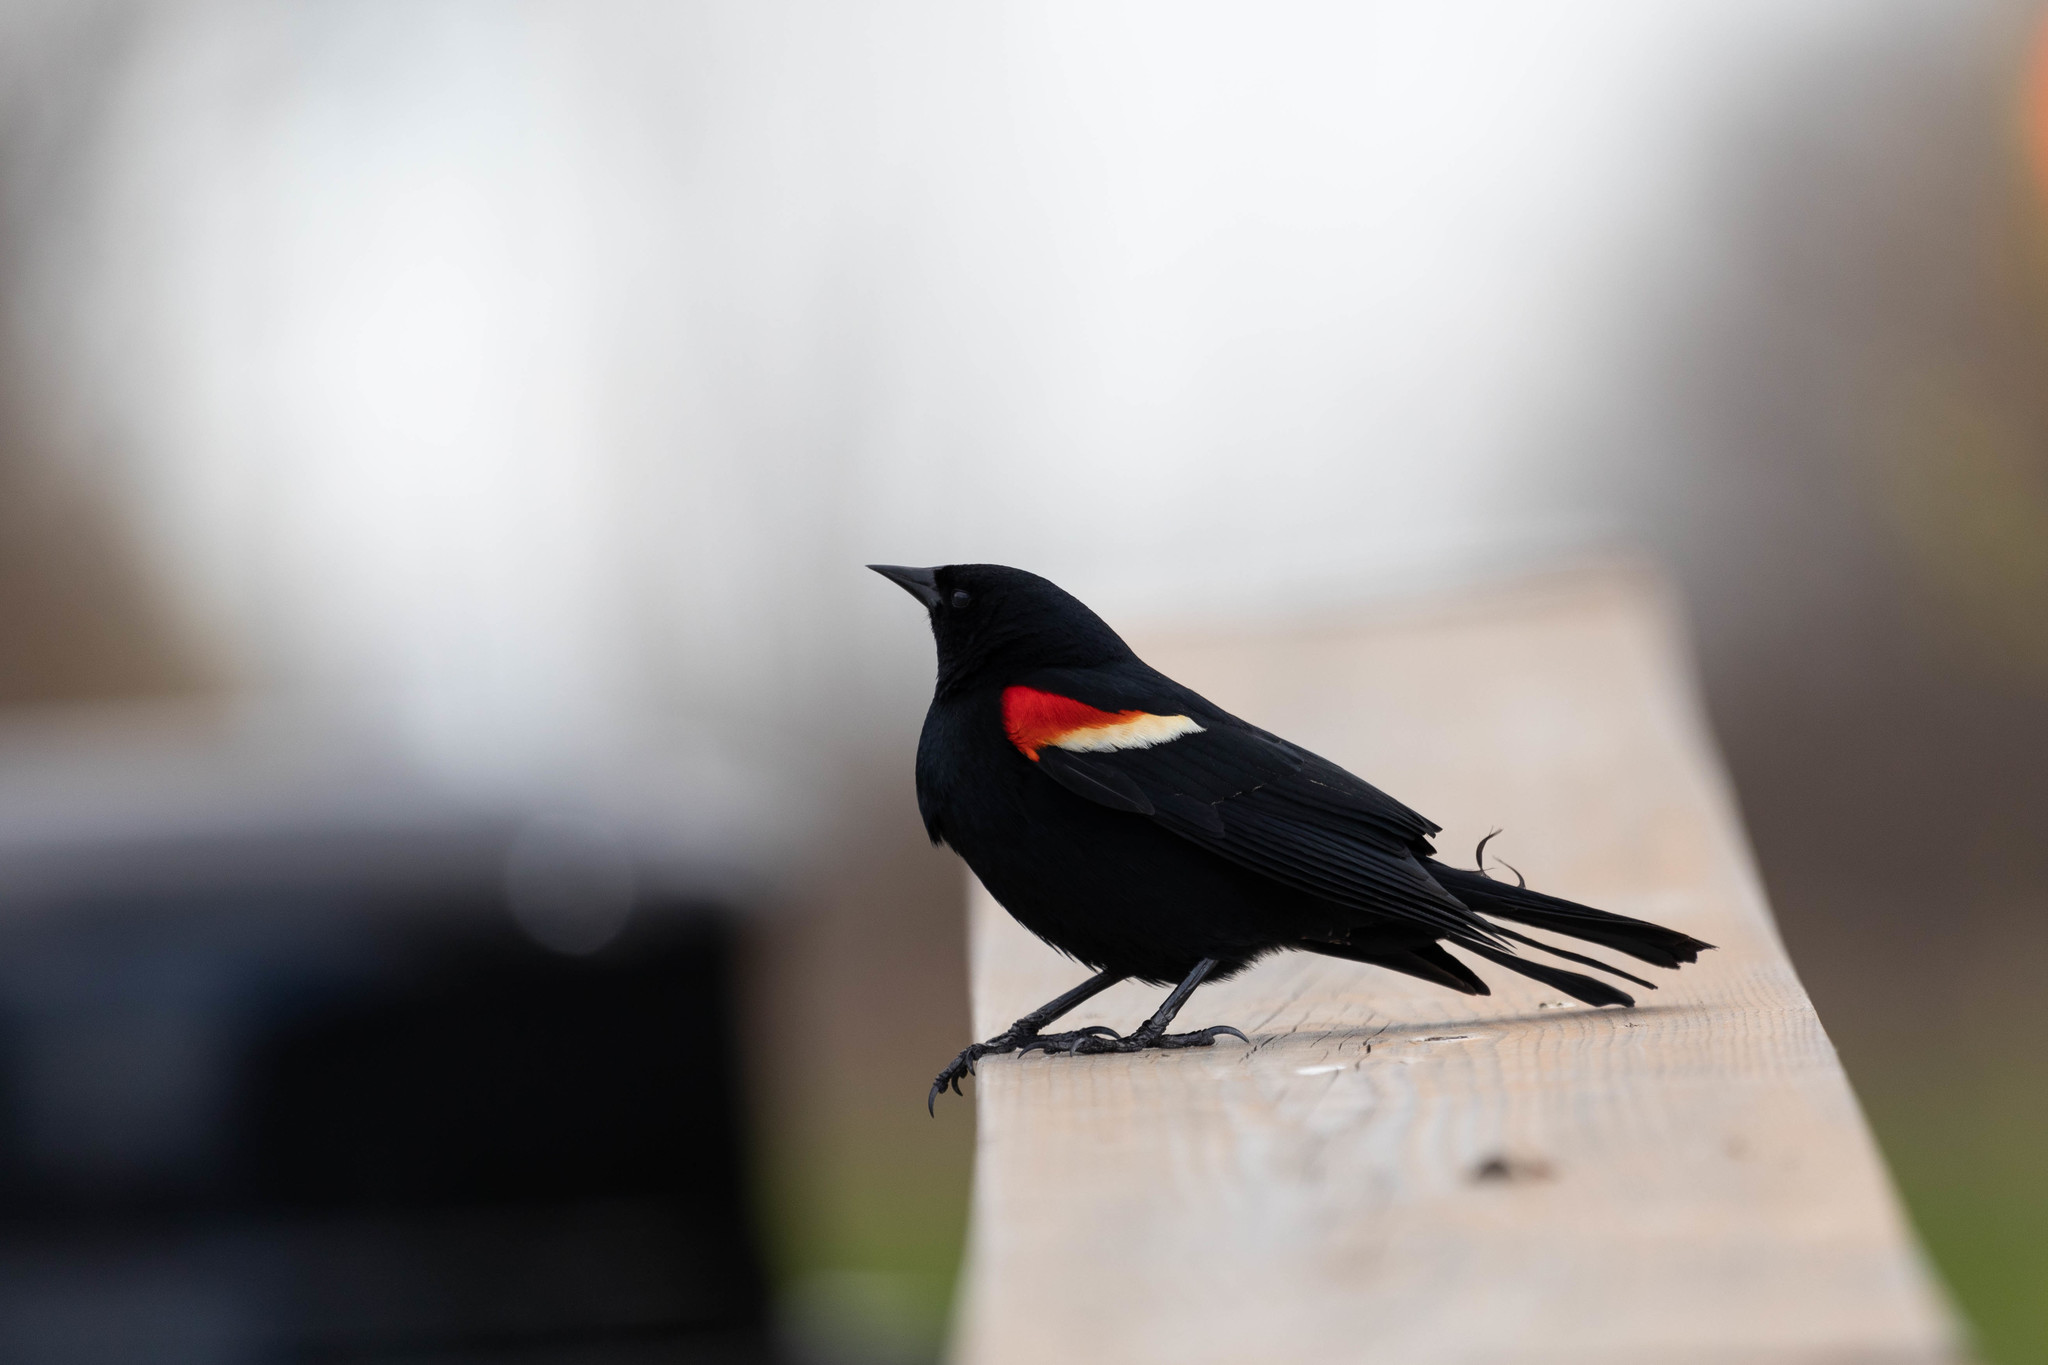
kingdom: Animalia
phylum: Chordata
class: Aves
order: Passeriformes
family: Icteridae
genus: Agelaius
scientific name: Agelaius phoeniceus
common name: Red-winged blackbird
